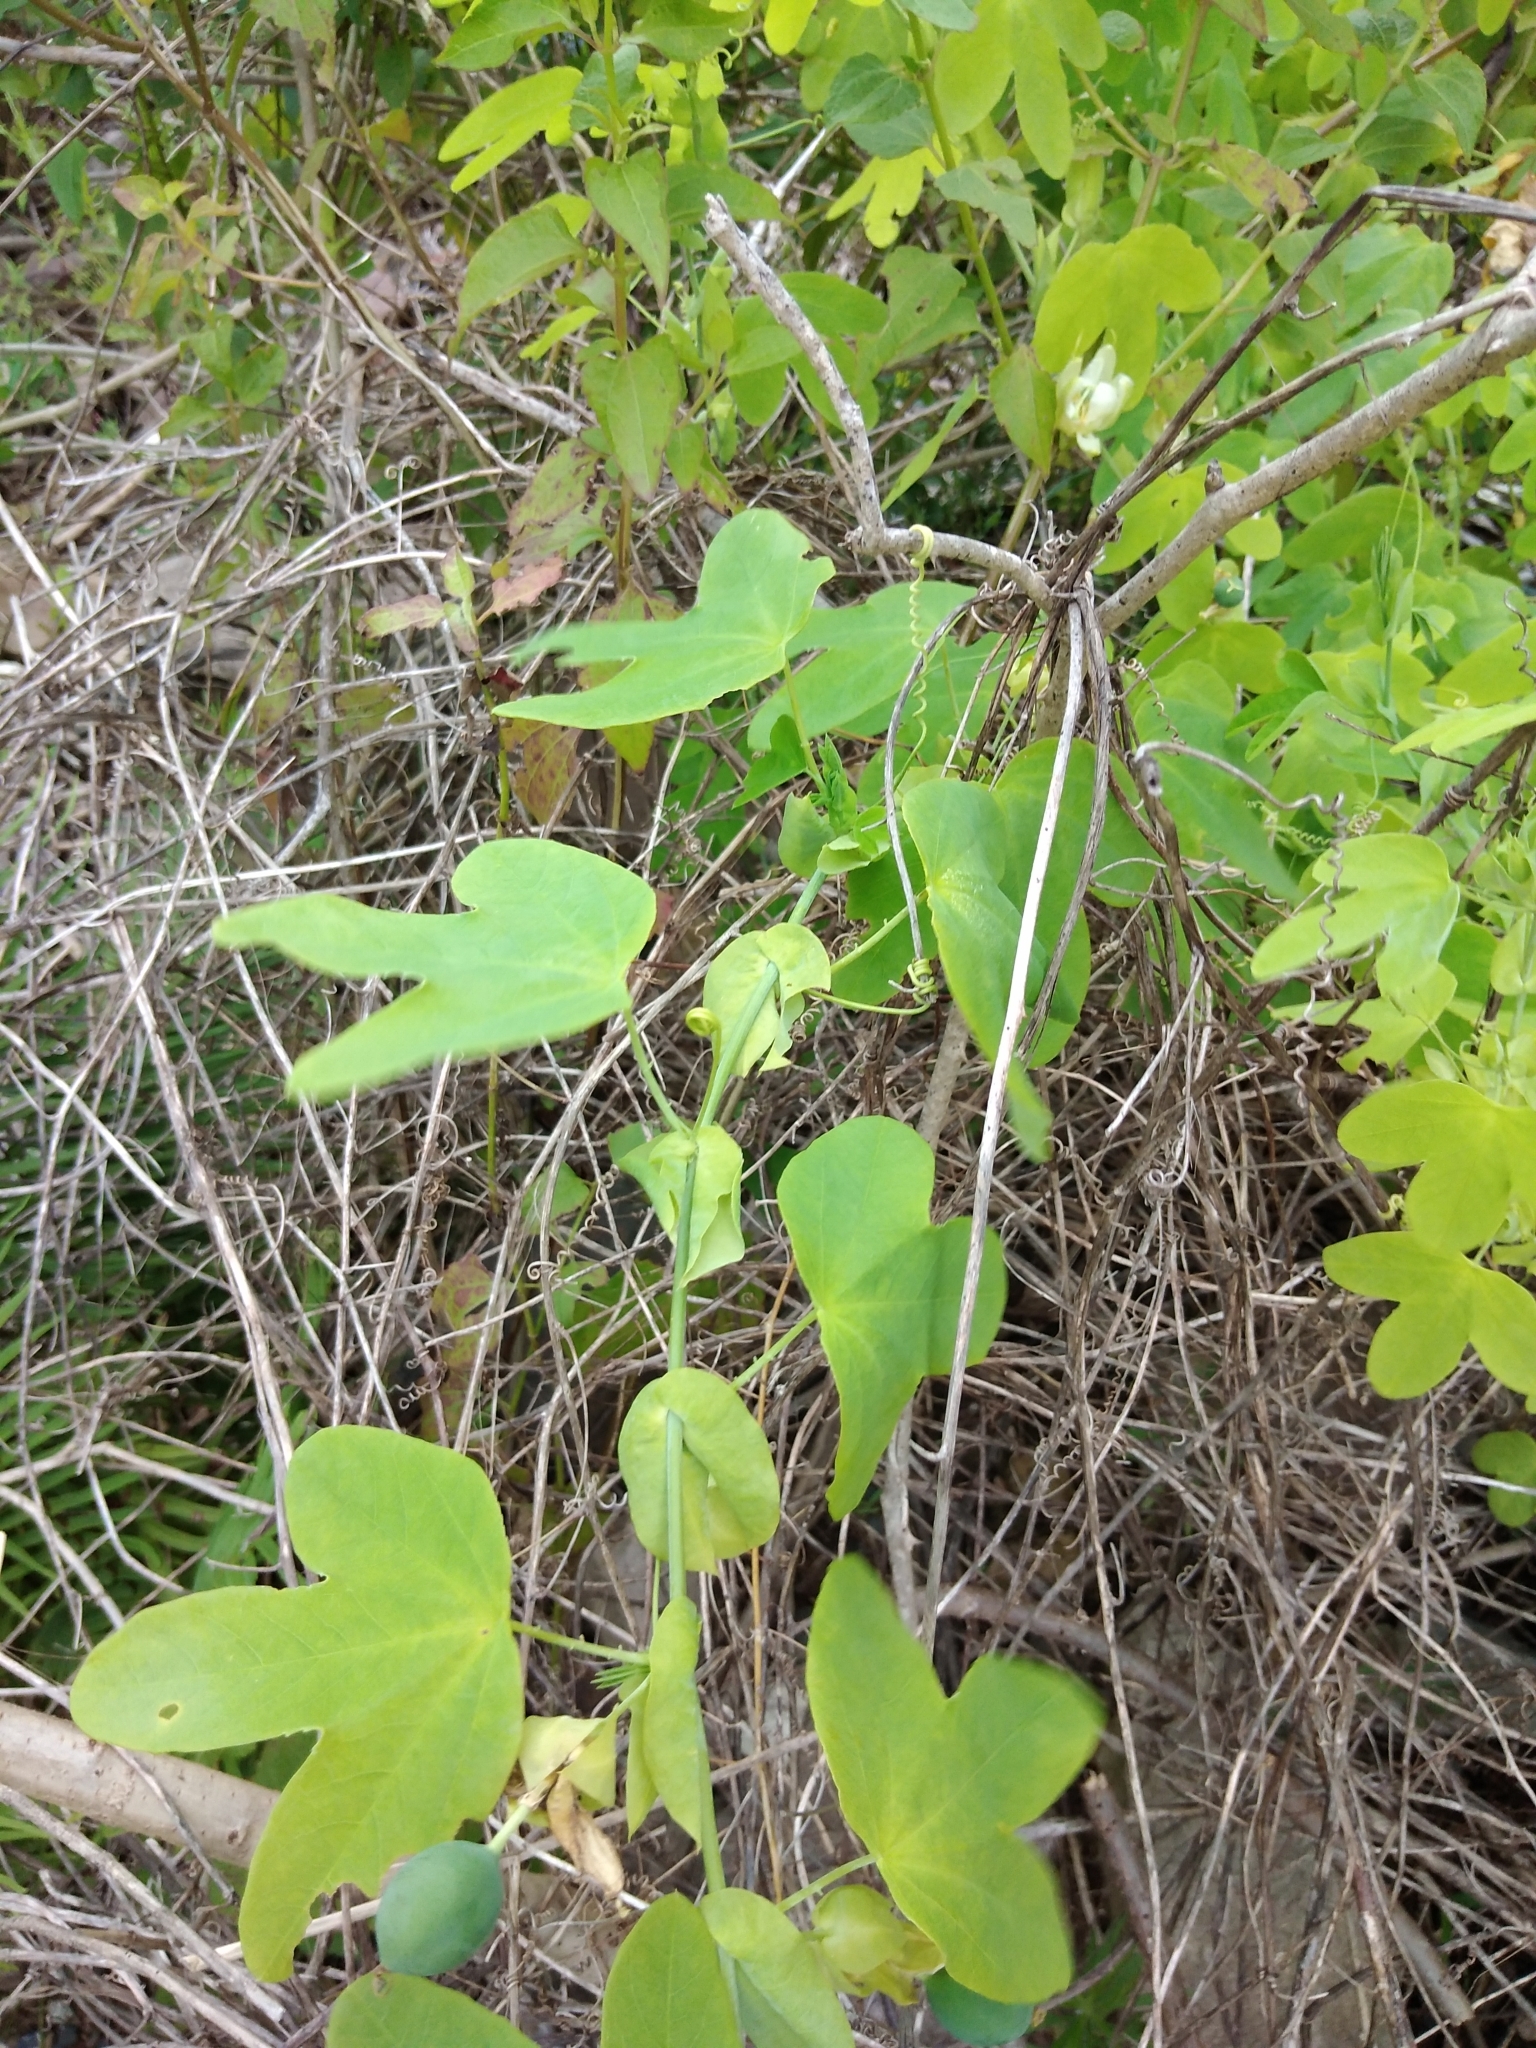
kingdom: Plantae
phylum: Tracheophyta
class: Magnoliopsida
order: Malpighiales
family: Passifloraceae
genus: Passiflora
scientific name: Passiflora subpeltata
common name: White passionflower
